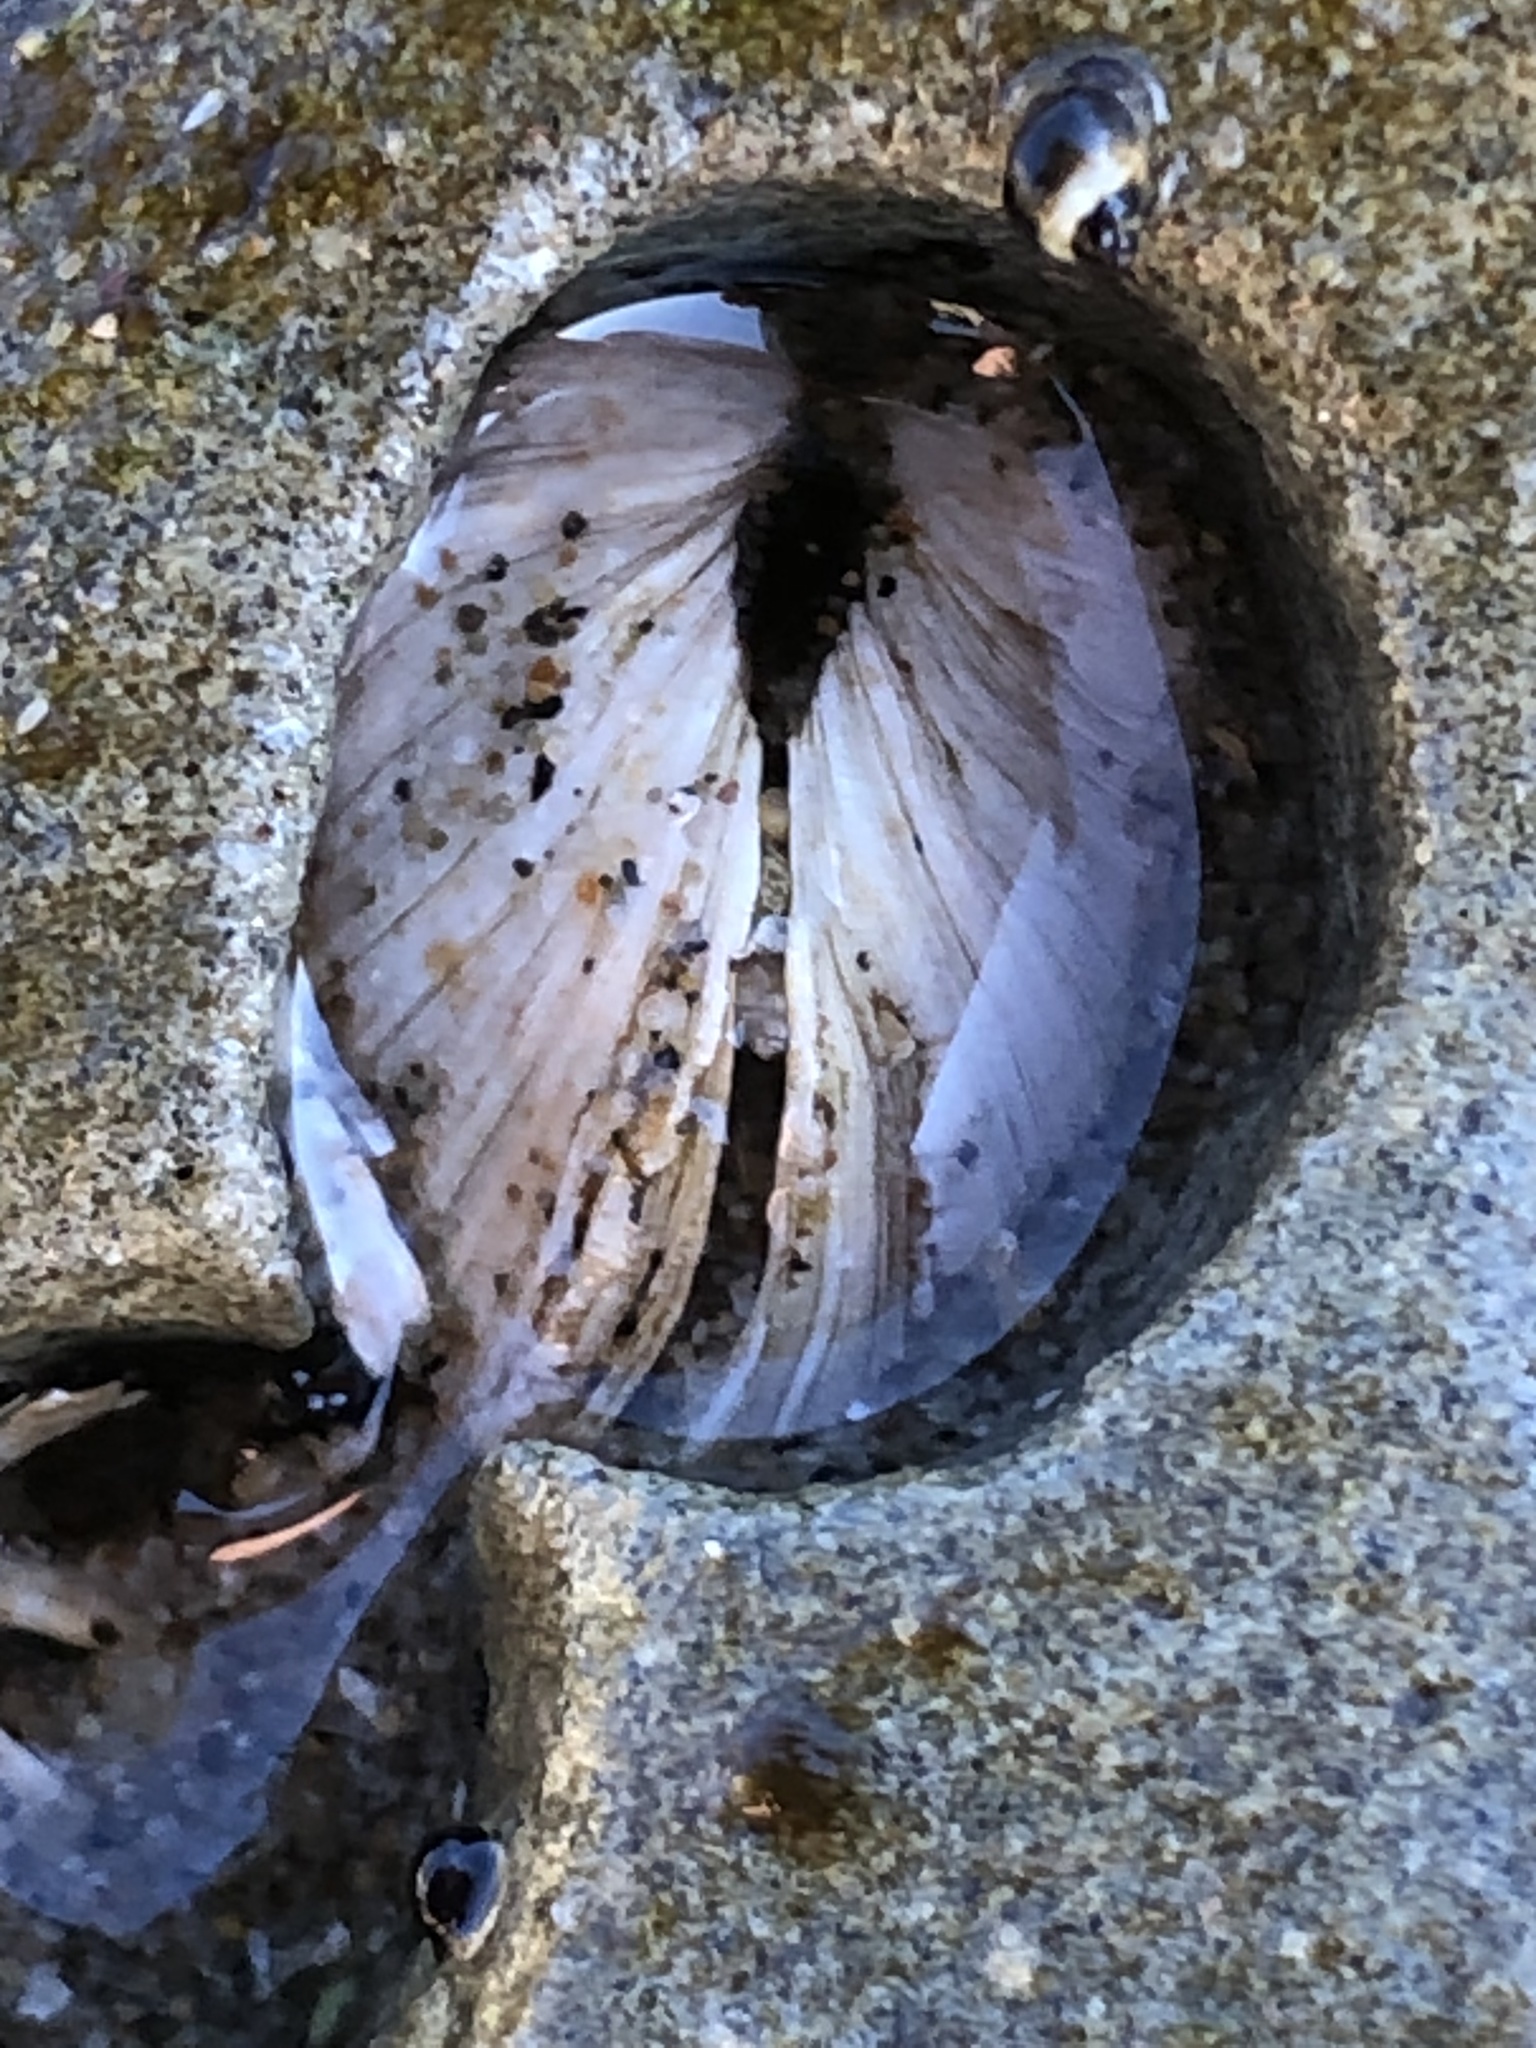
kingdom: Animalia
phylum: Mollusca
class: Bivalvia
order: Venerida
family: Veneridae
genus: Petricola
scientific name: Petricola carditoides
